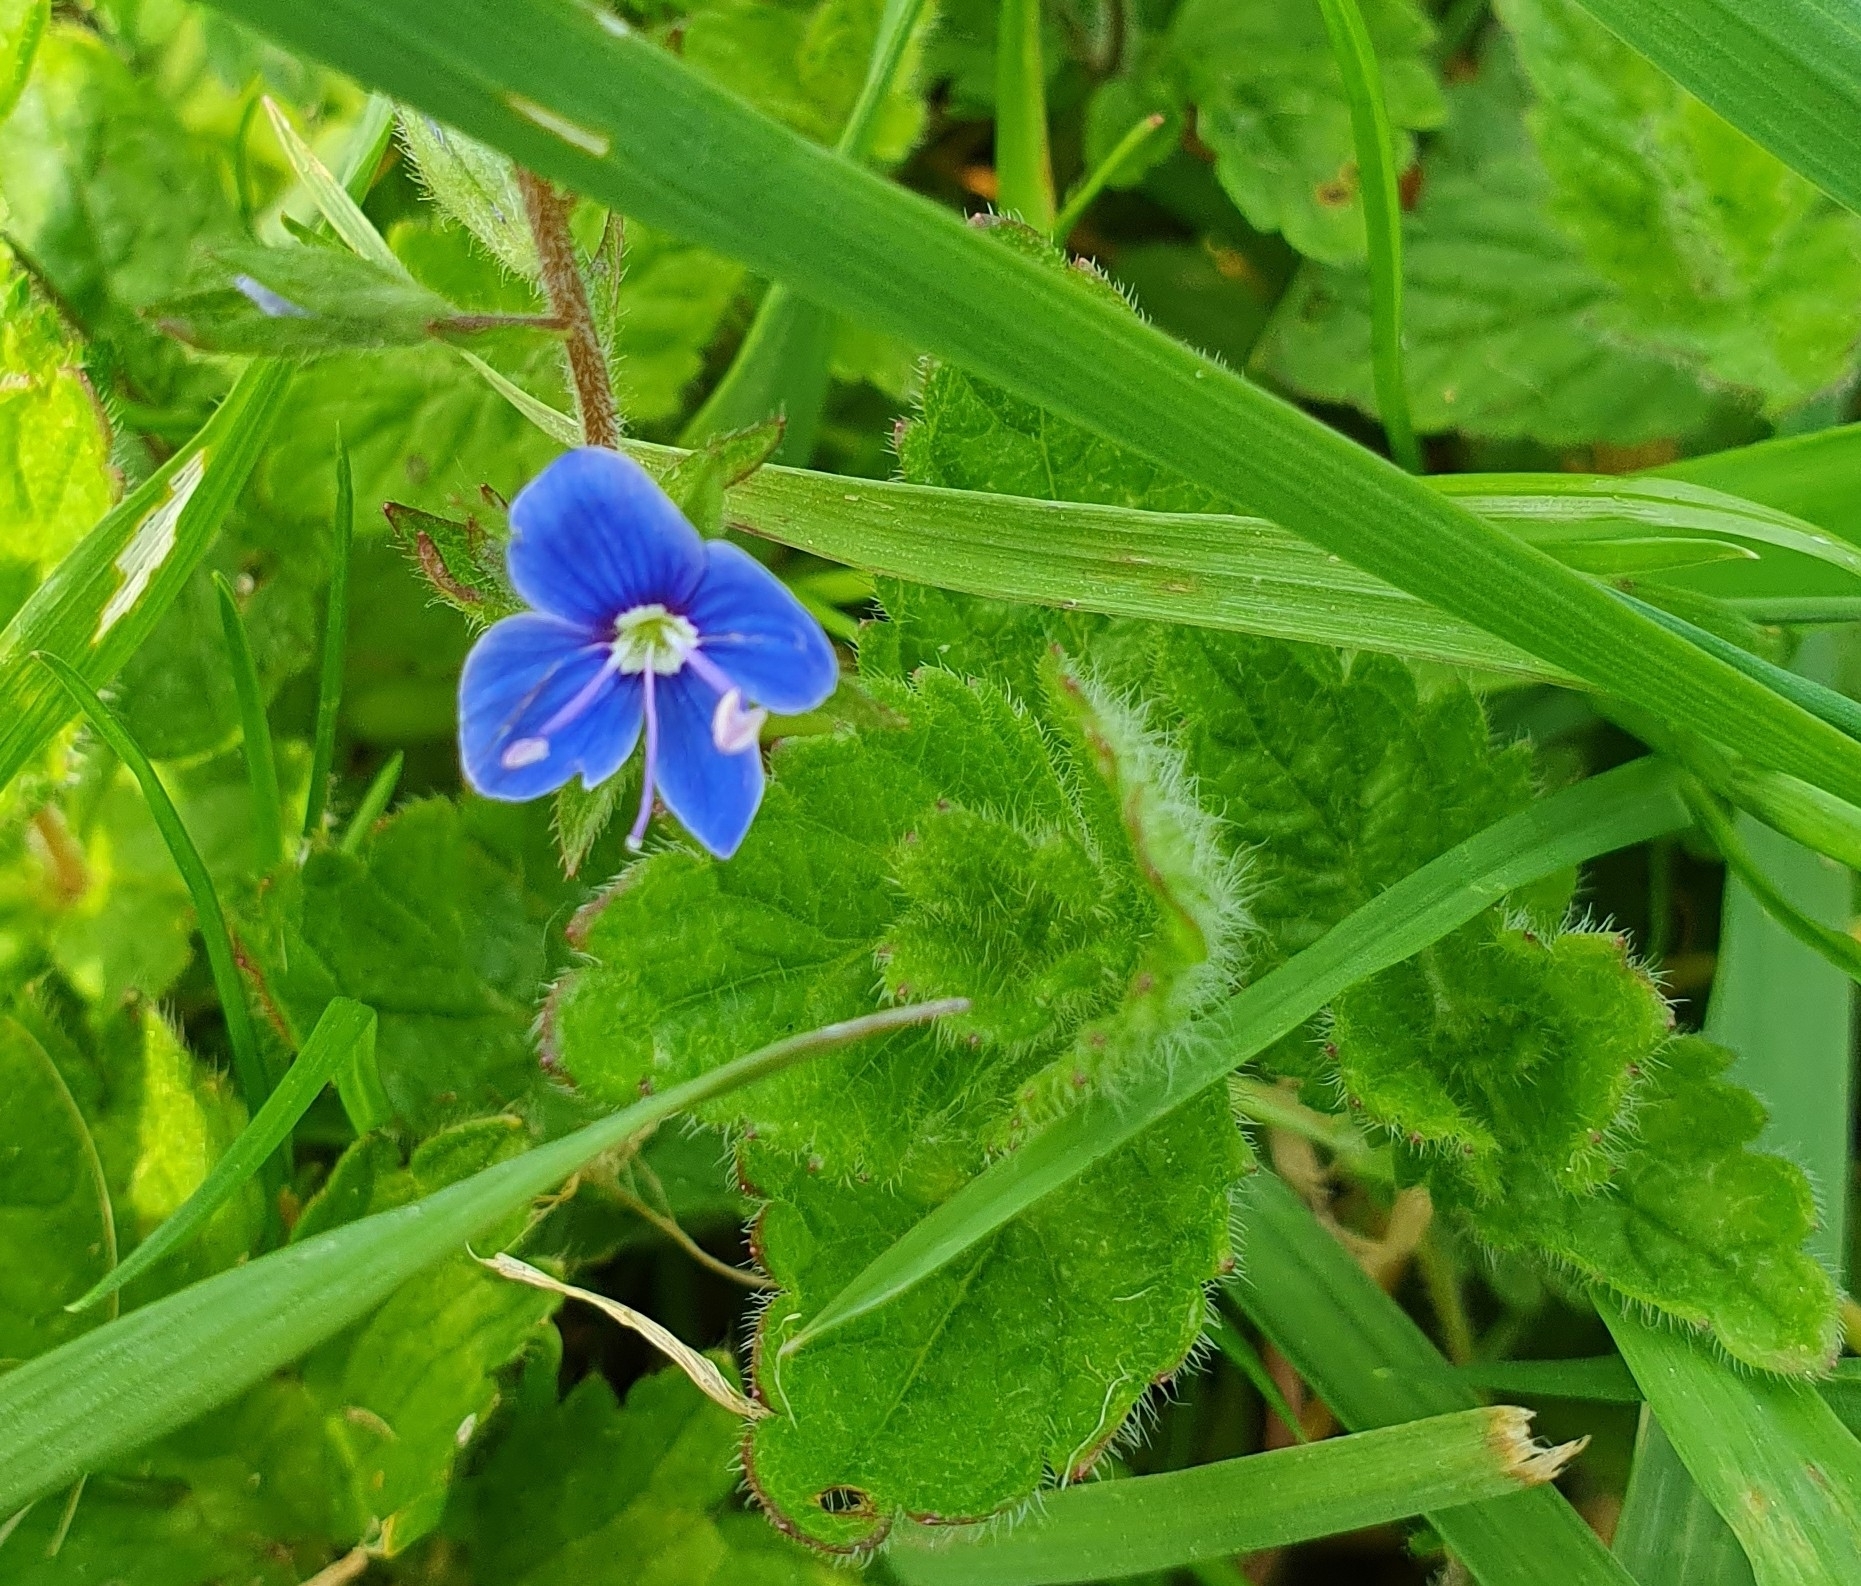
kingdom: Plantae
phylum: Tracheophyta
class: Magnoliopsida
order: Lamiales
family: Plantaginaceae
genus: Veronica
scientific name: Veronica chamaedrys
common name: Germander speedwell
